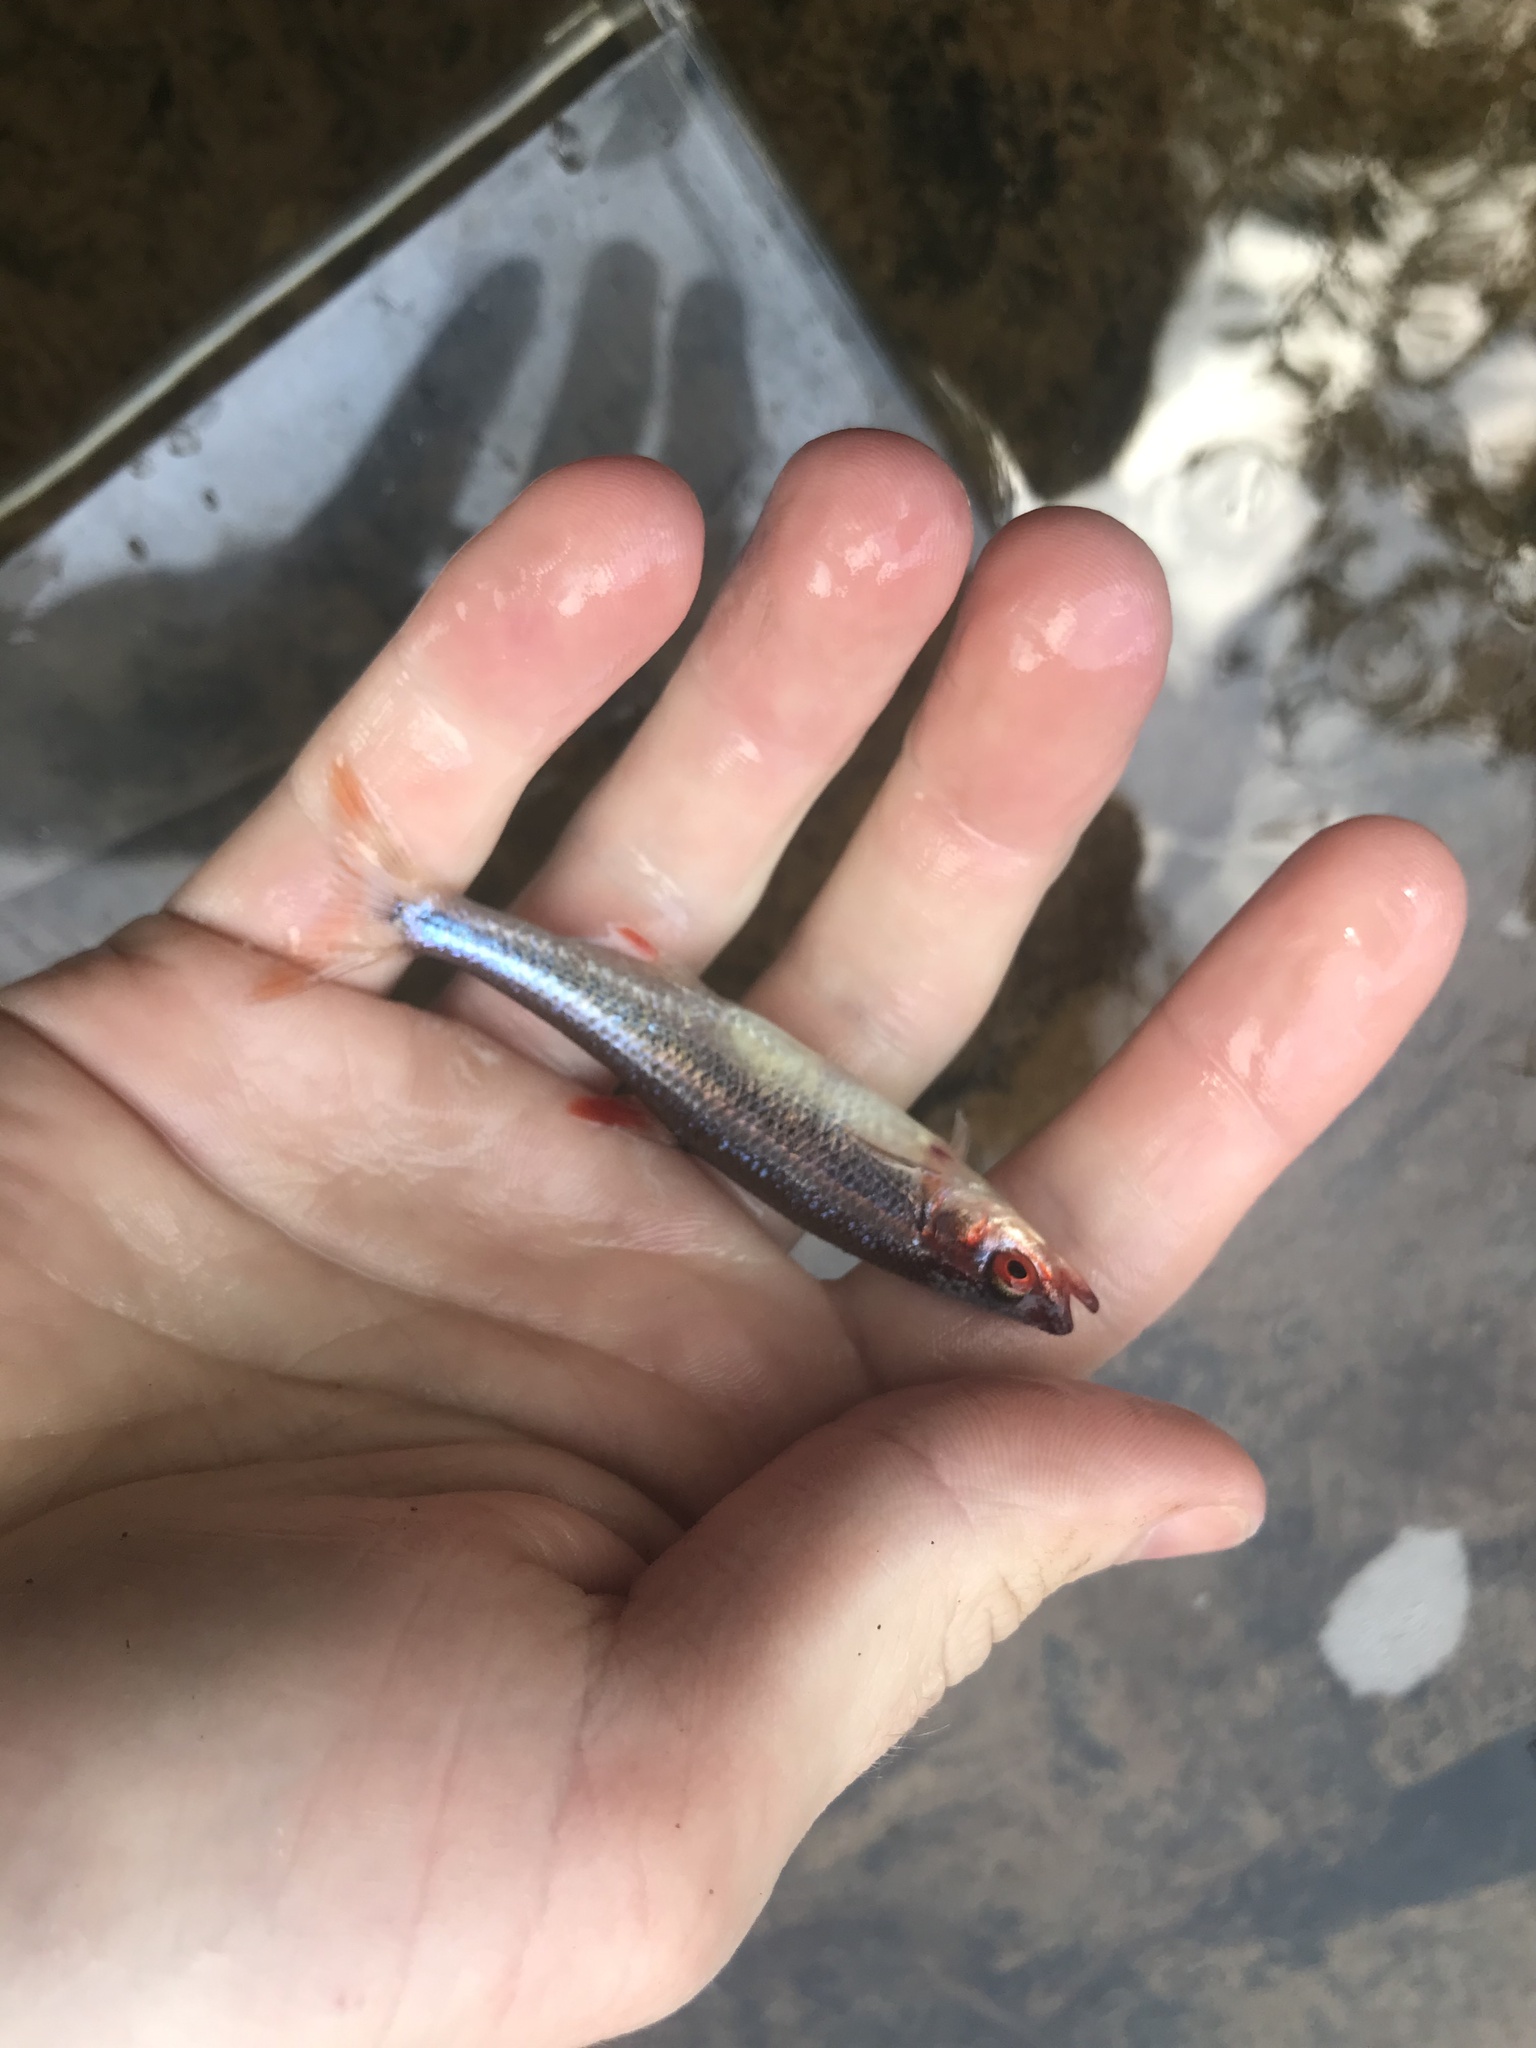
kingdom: Animalia
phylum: Chordata
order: Cypriniformes
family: Cyprinidae
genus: Lythrurus
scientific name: Lythrurus matutinus
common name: Pinewoods shiner
